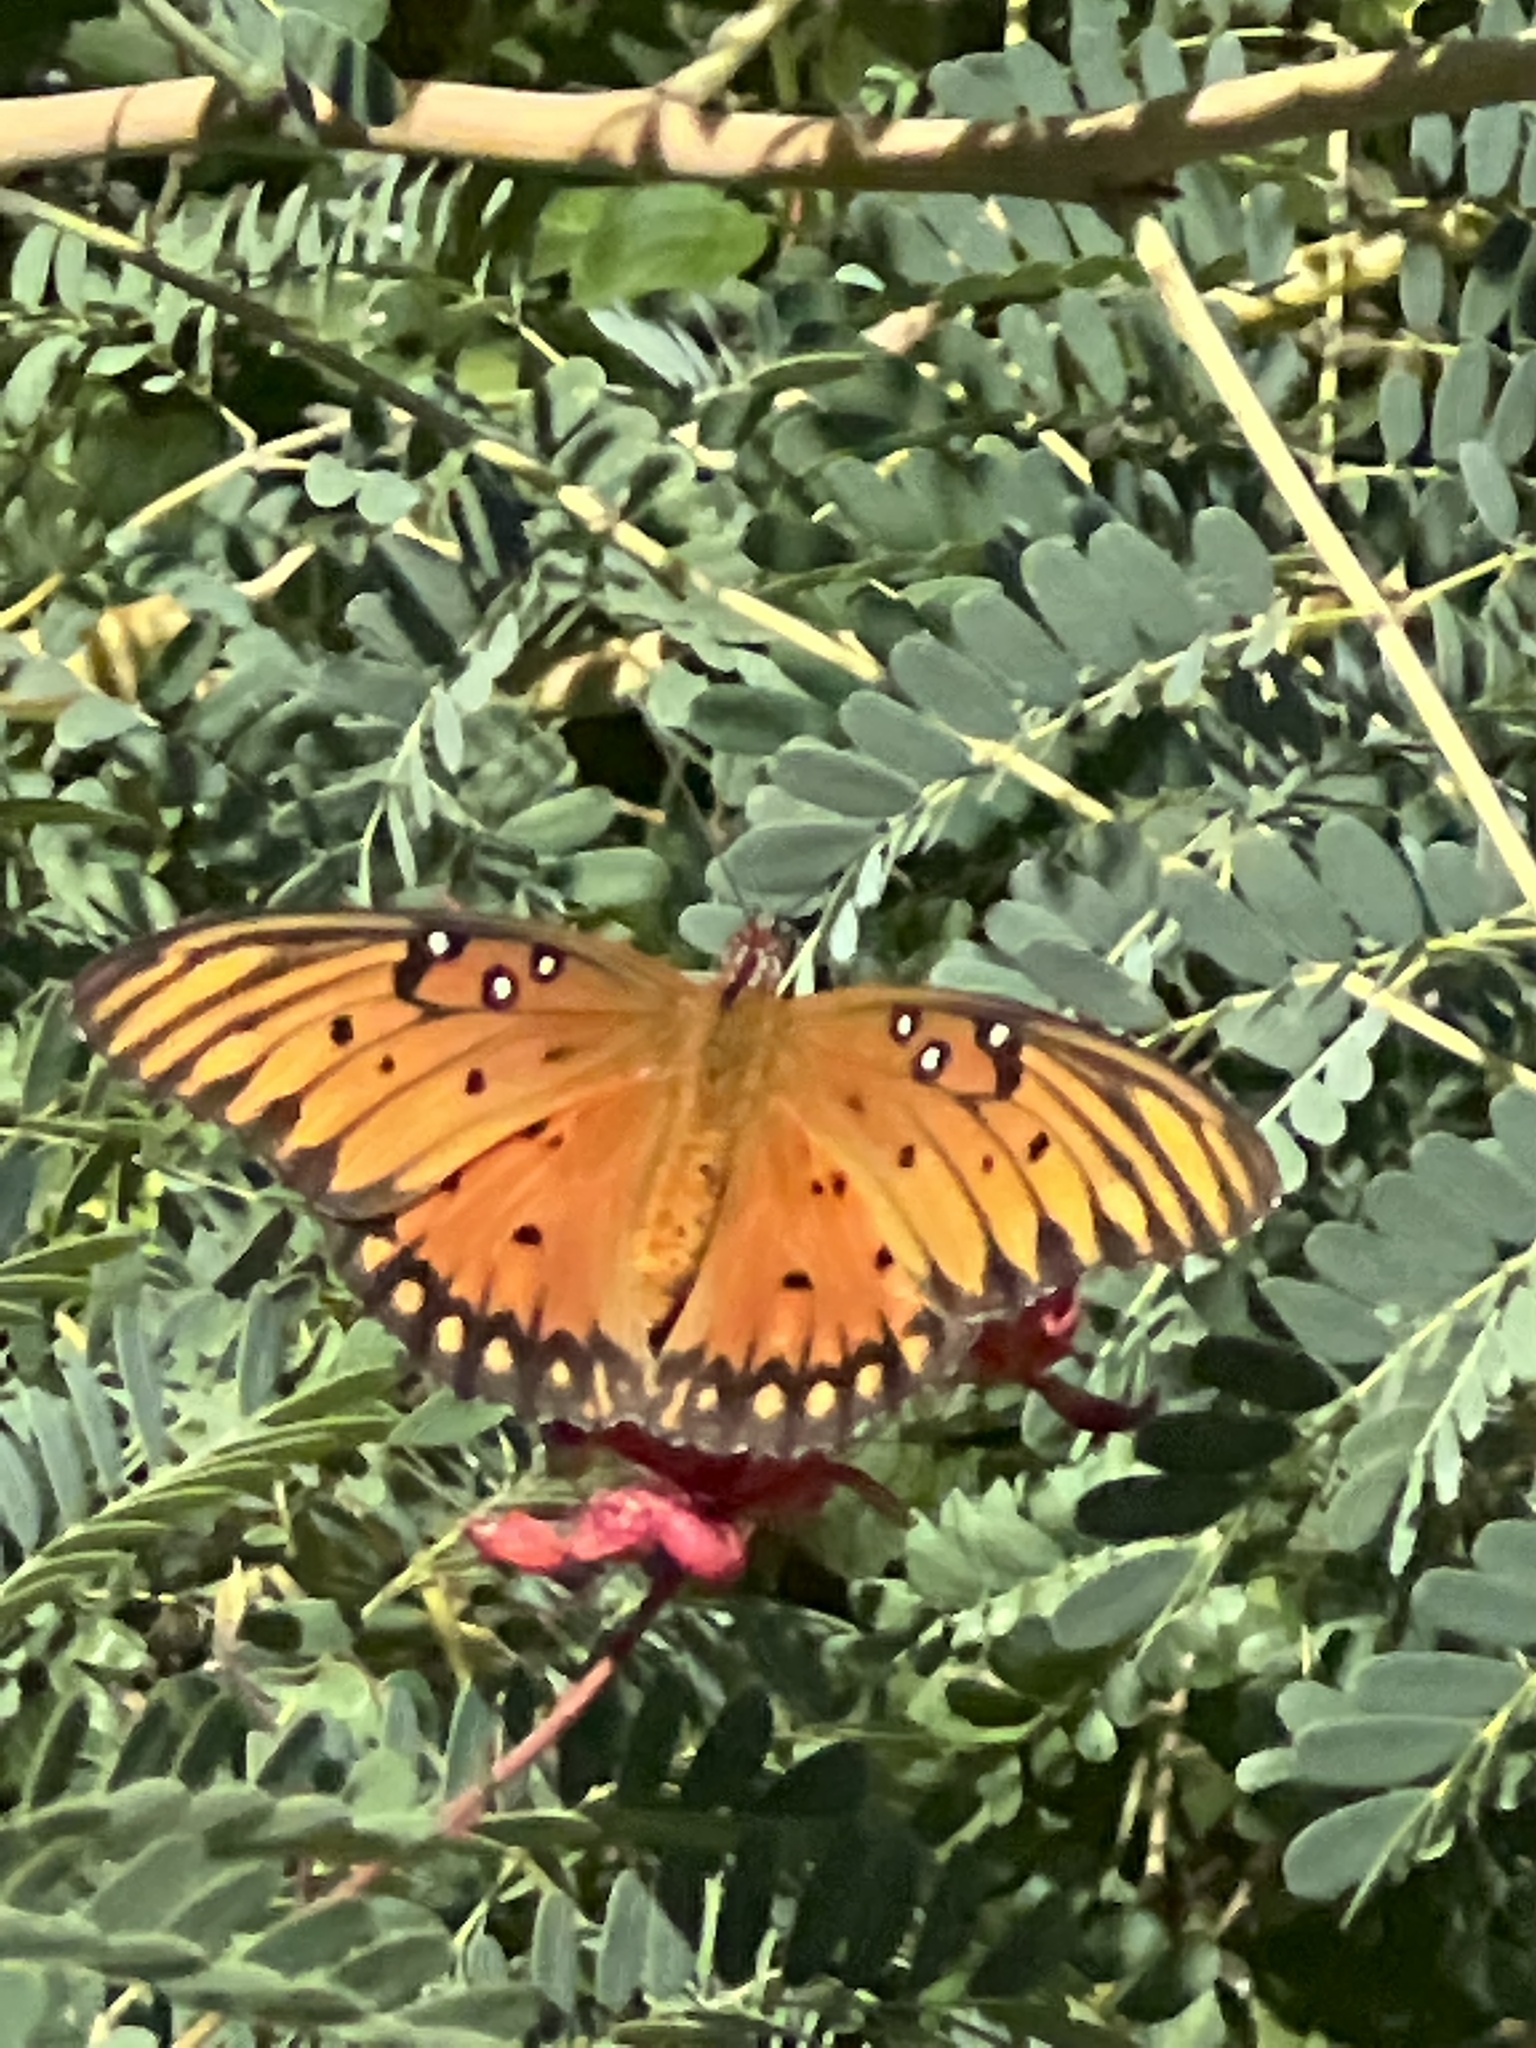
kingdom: Animalia
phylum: Arthropoda
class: Insecta
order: Lepidoptera
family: Nymphalidae
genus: Dione
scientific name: Dione vanillae
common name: Gulf fritillary
